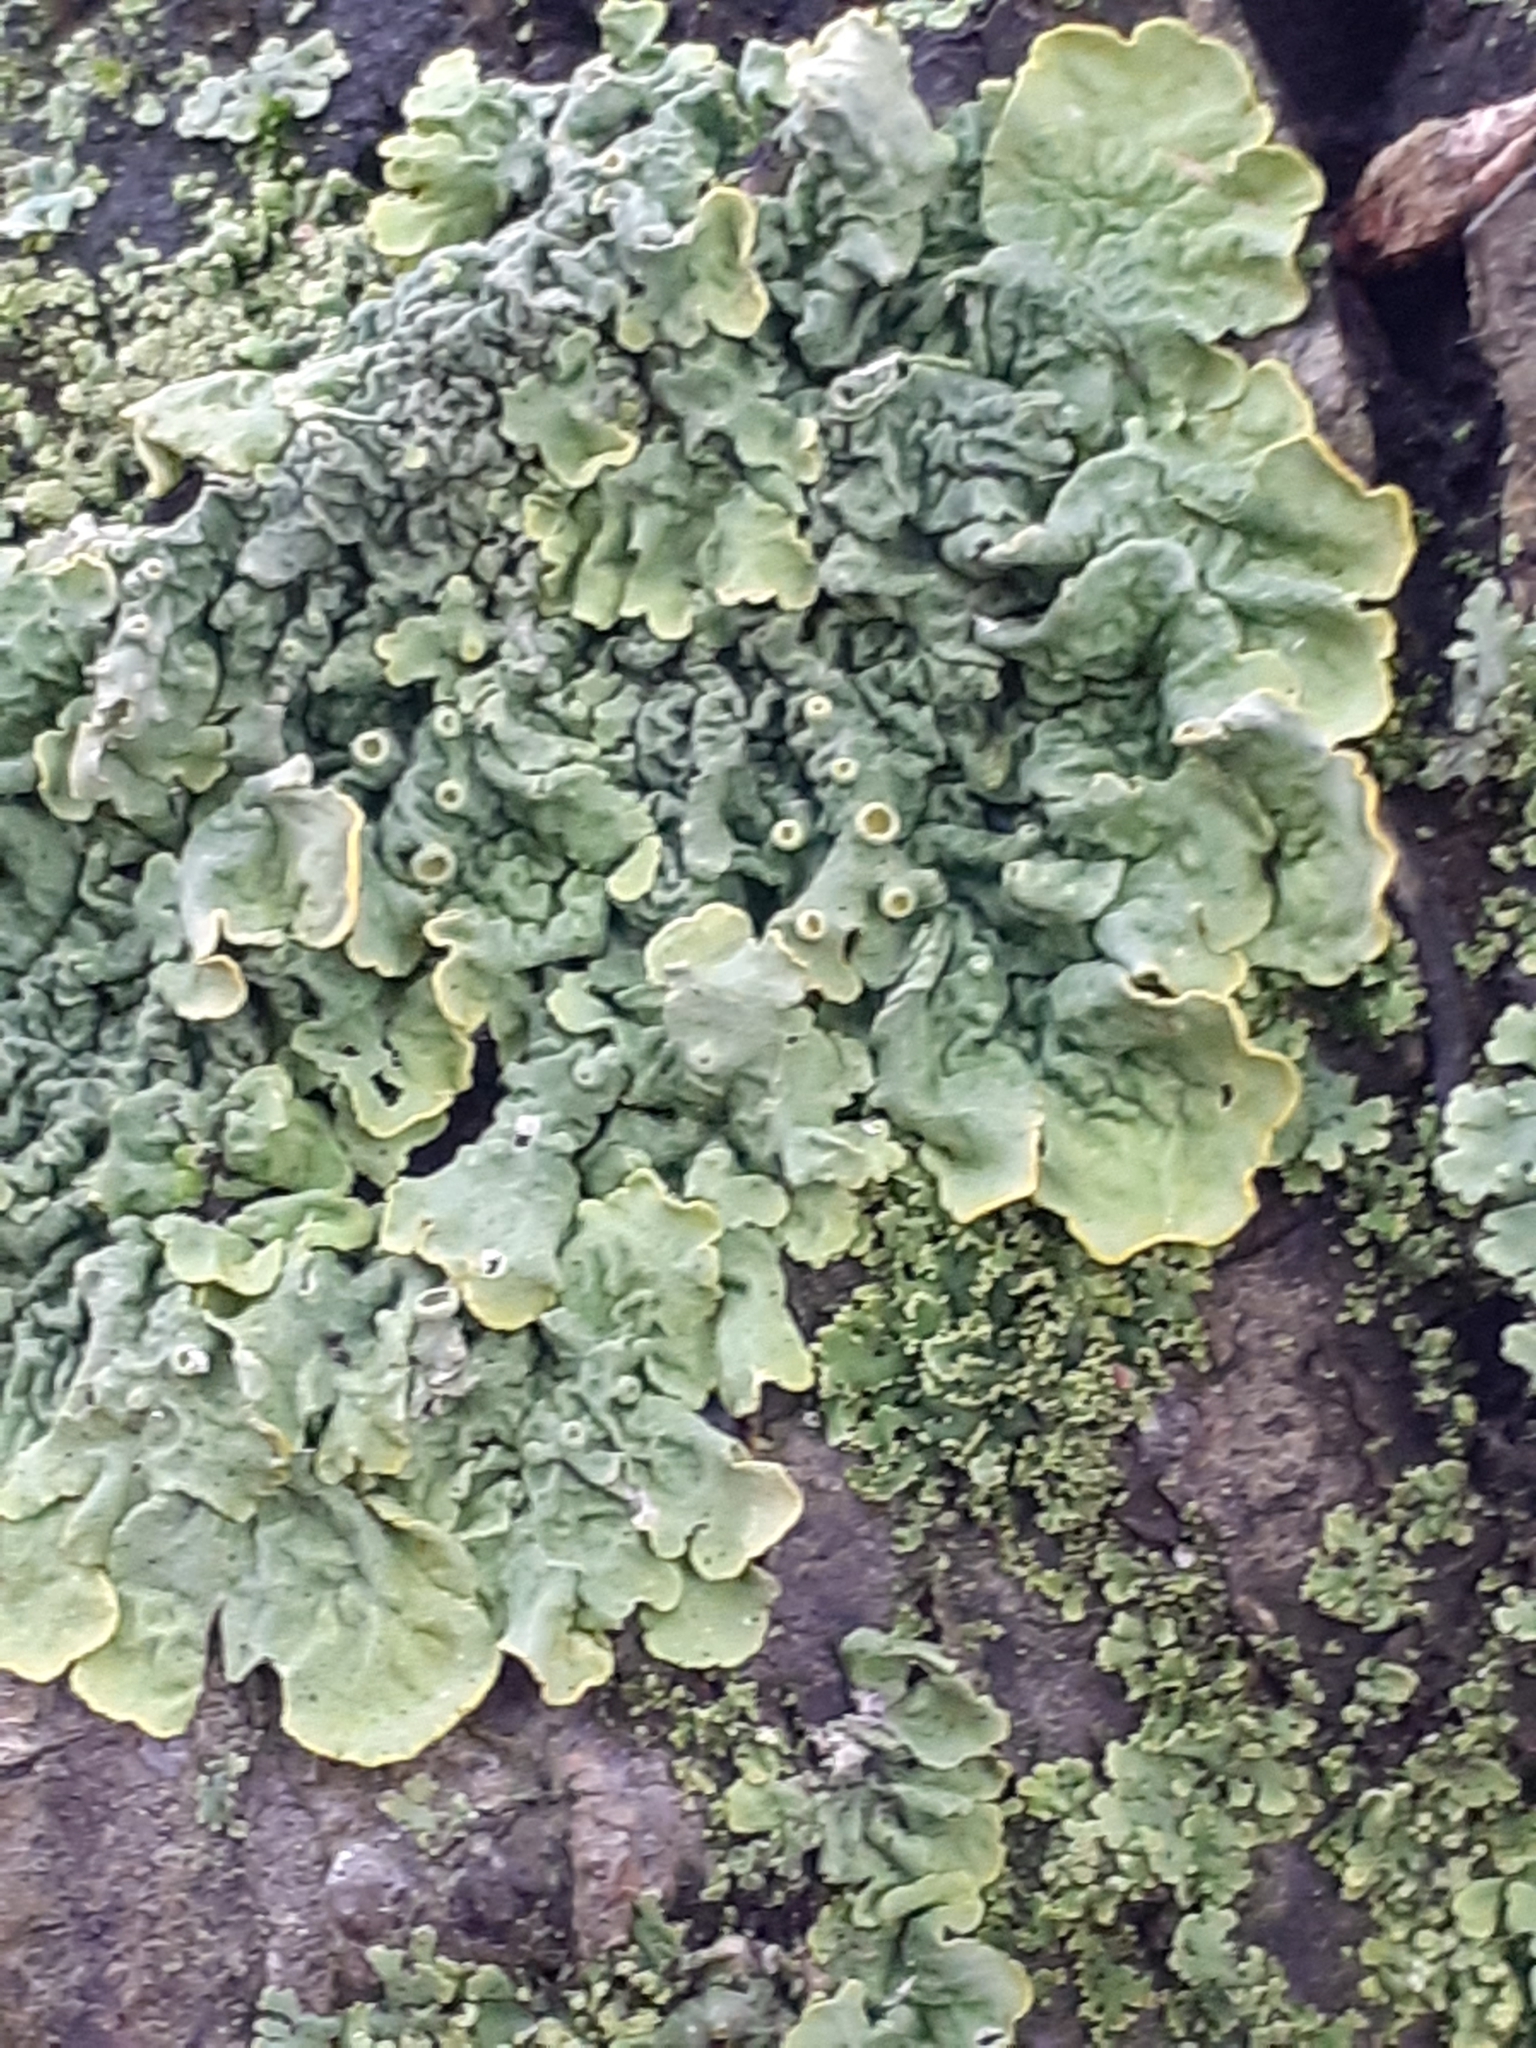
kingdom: Fungi
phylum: Ascomycota
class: Lecanoromycetes
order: Teloschistales
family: Teloschistaceae
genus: Xanthoria
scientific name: Xanthoria parietina
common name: Common orange lichen
